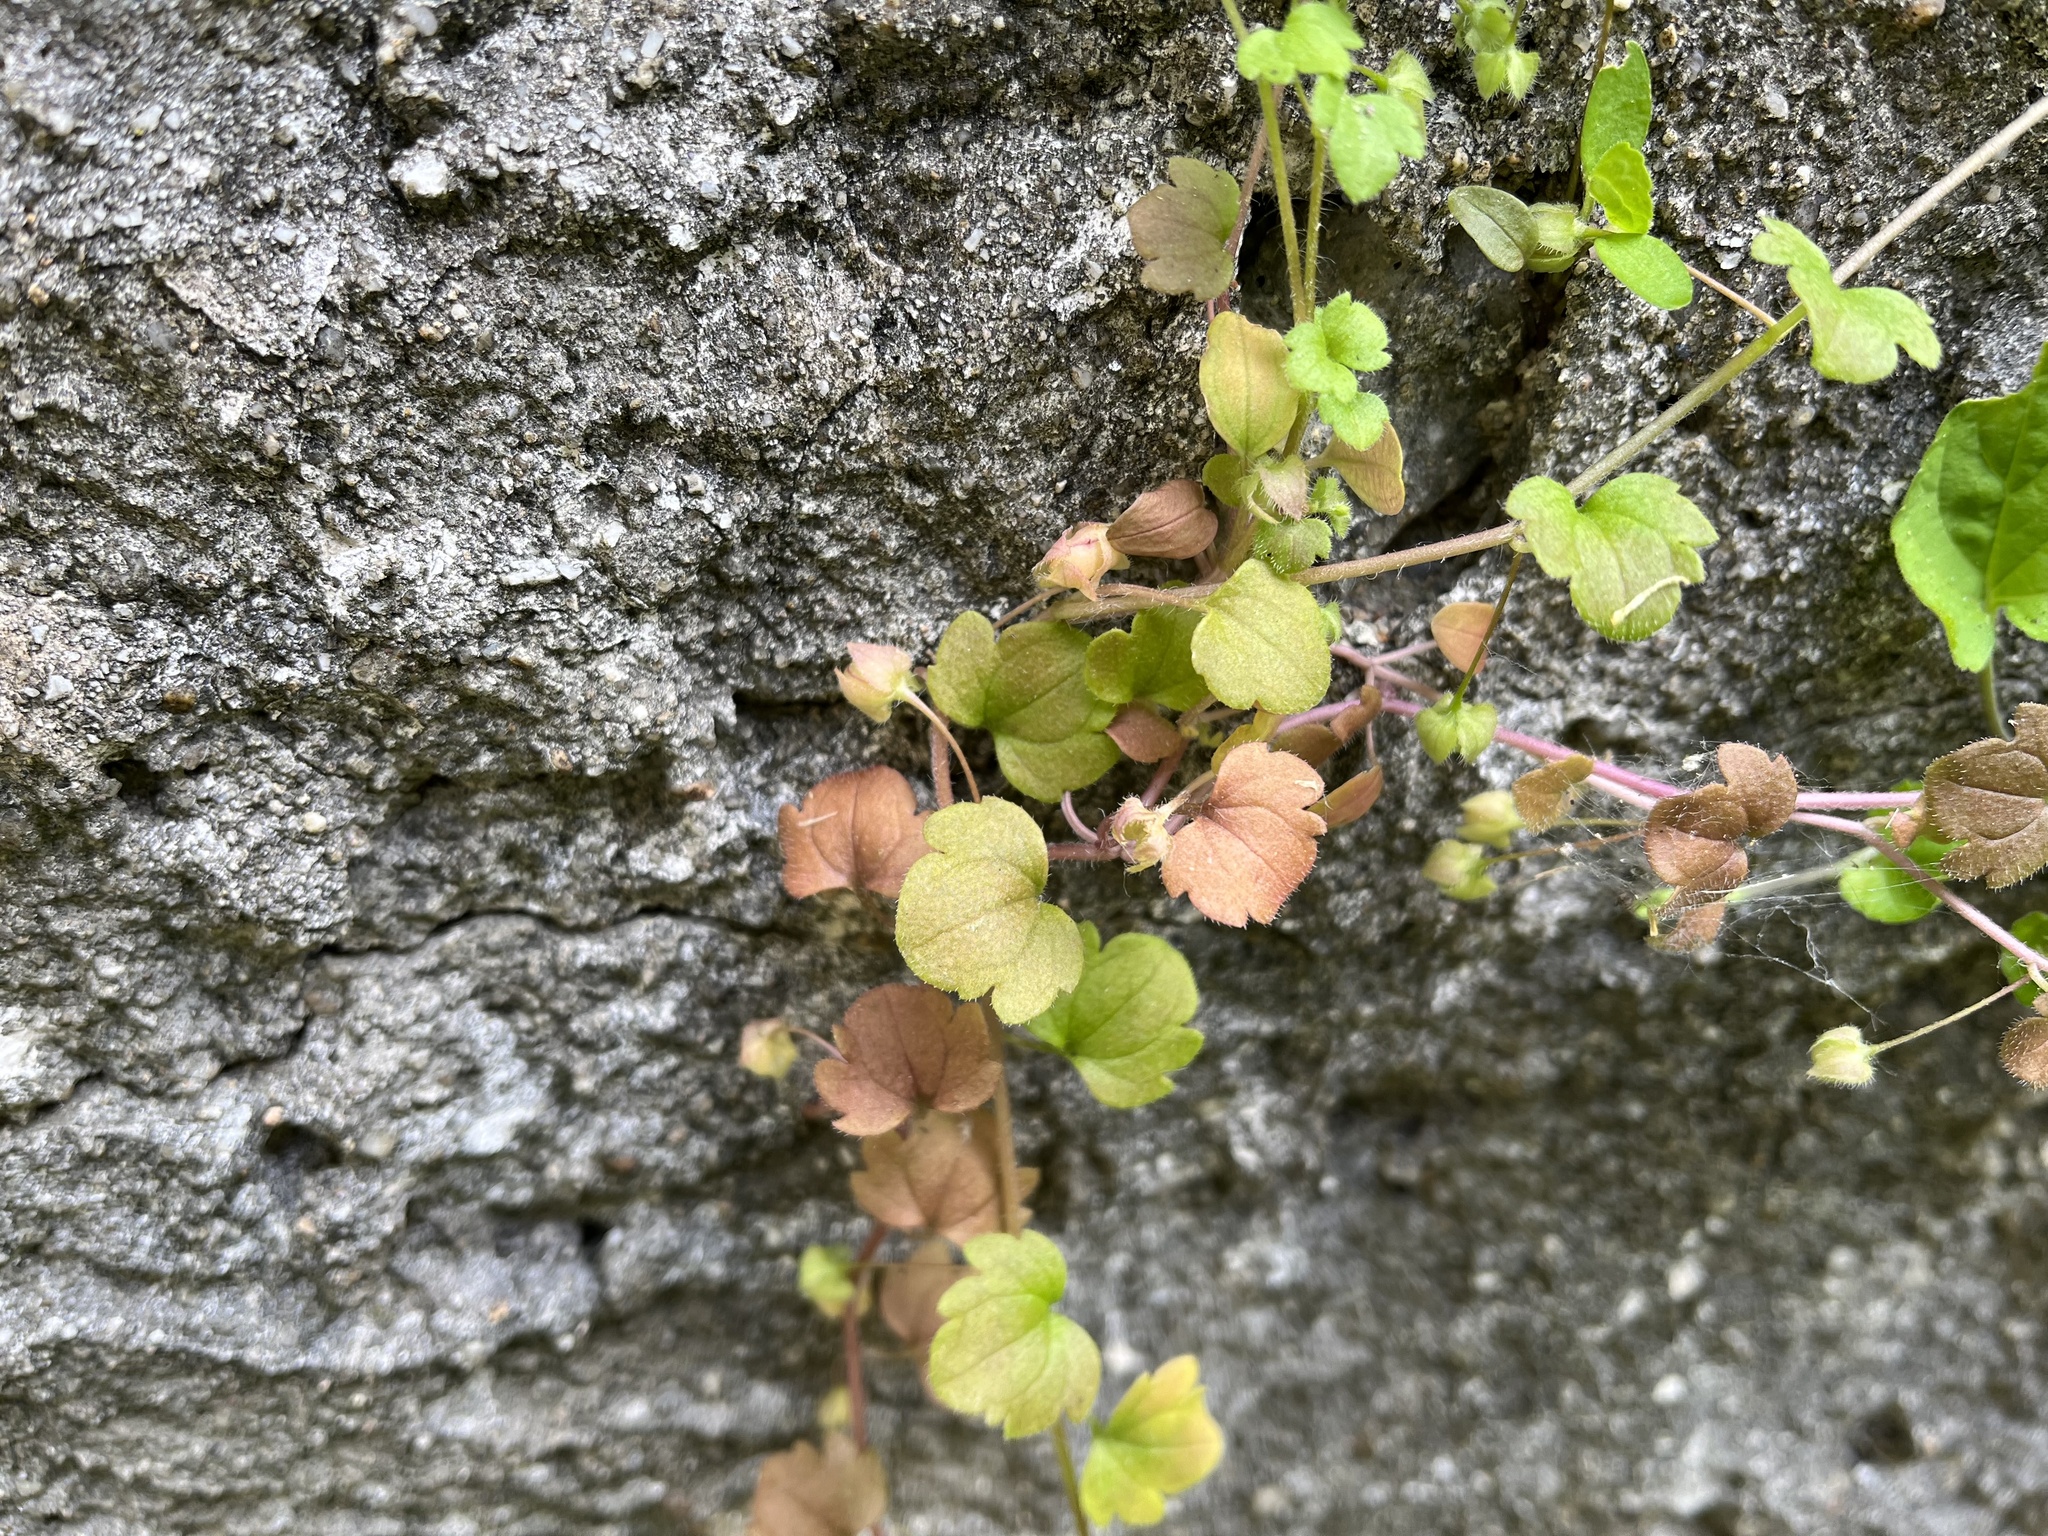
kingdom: Plantae
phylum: Tracheophyta
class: Magnoliopsida
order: Lamiales
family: Plantaginaceae
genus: Veronica
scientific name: Veronica sublobata
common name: False ivy-leaved speedwell
